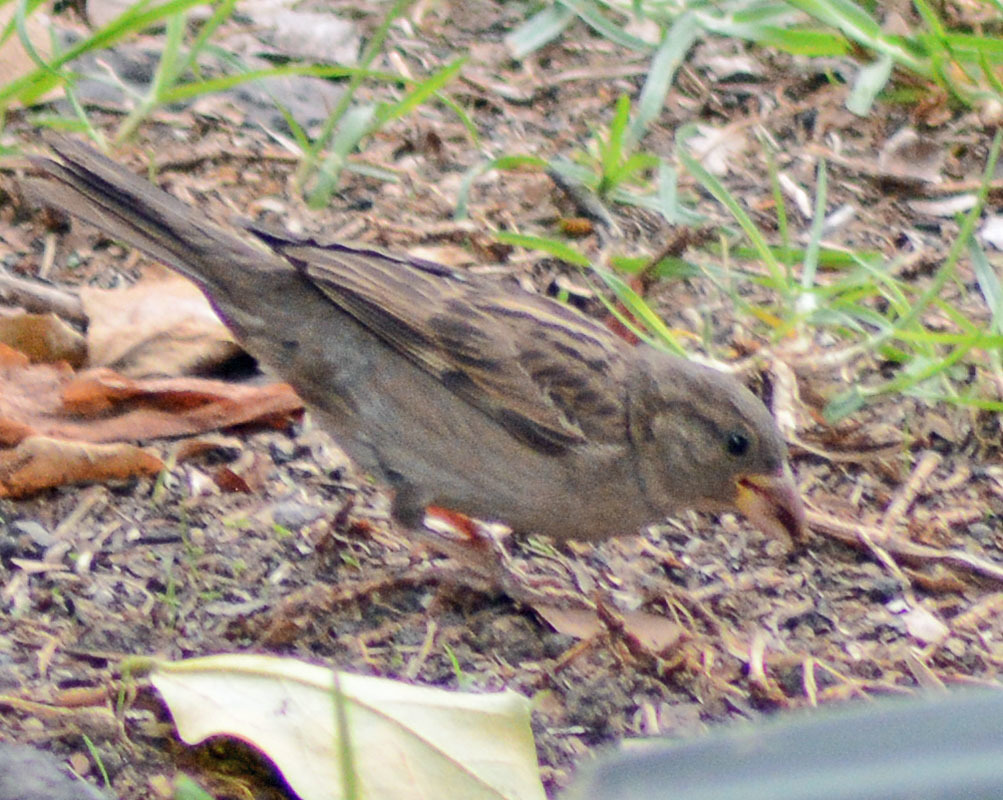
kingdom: Animalia
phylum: Chordata
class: Aves
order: Passeriformes
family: Passeridae
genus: Passer
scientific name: Passer domesticus
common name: House sparrow
